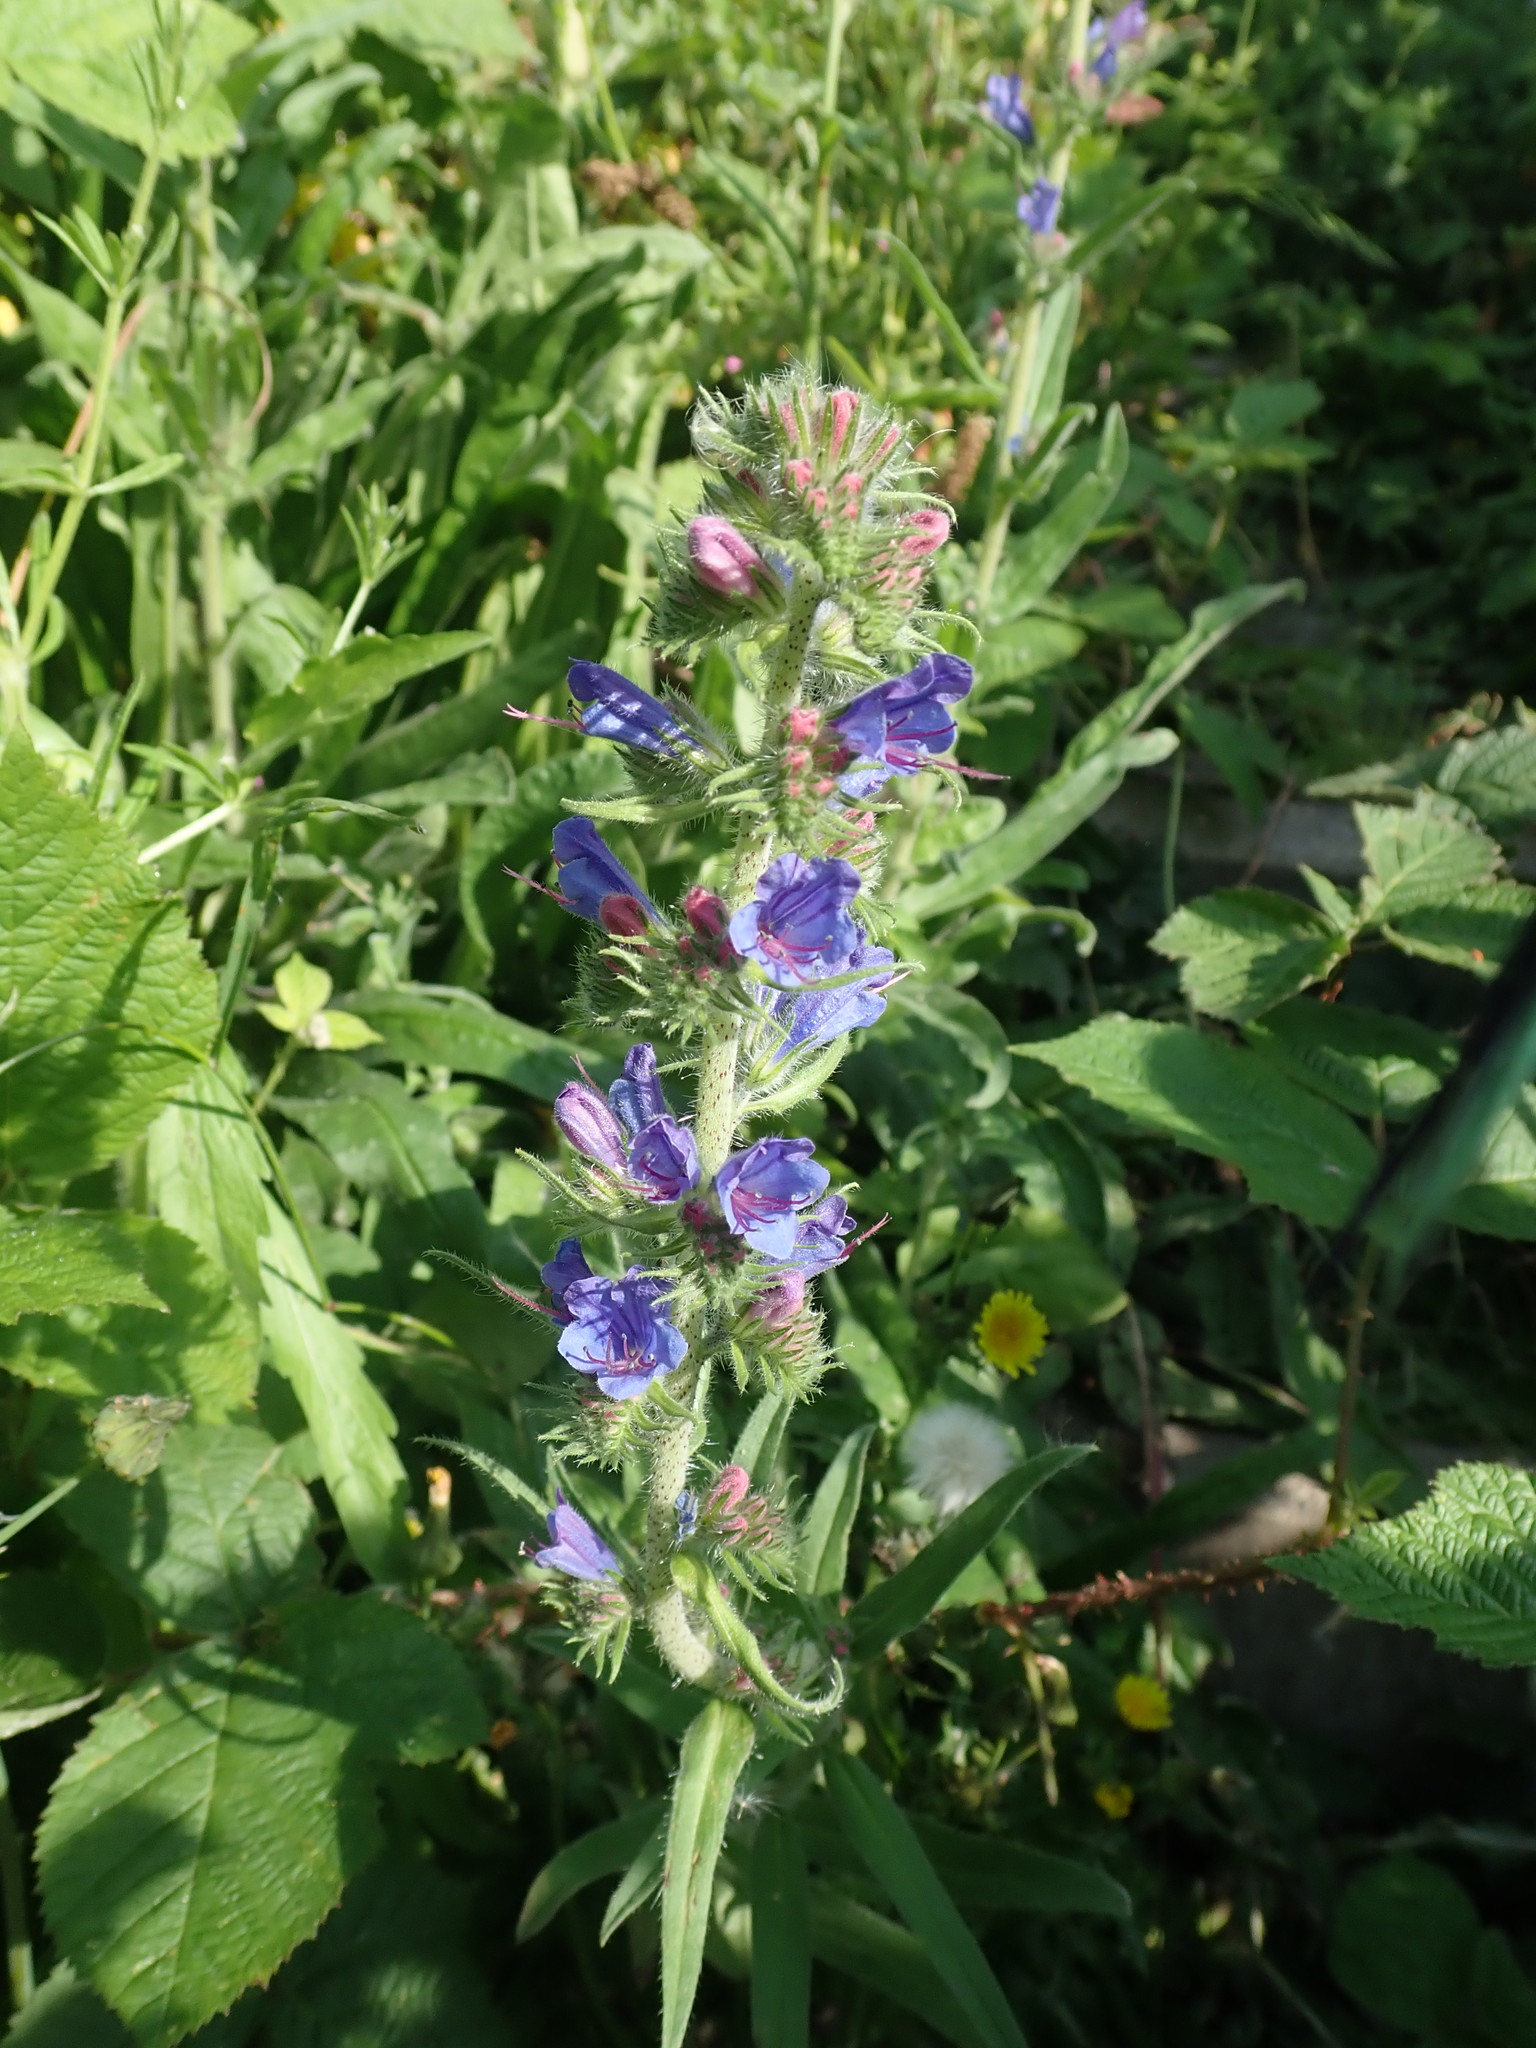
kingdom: Plantae
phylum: Tracheophyta
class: Magnoliopsida
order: Boraginales
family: Boraginaceae
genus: Echium
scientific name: Echium vulgare
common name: Common viper's bugloss
